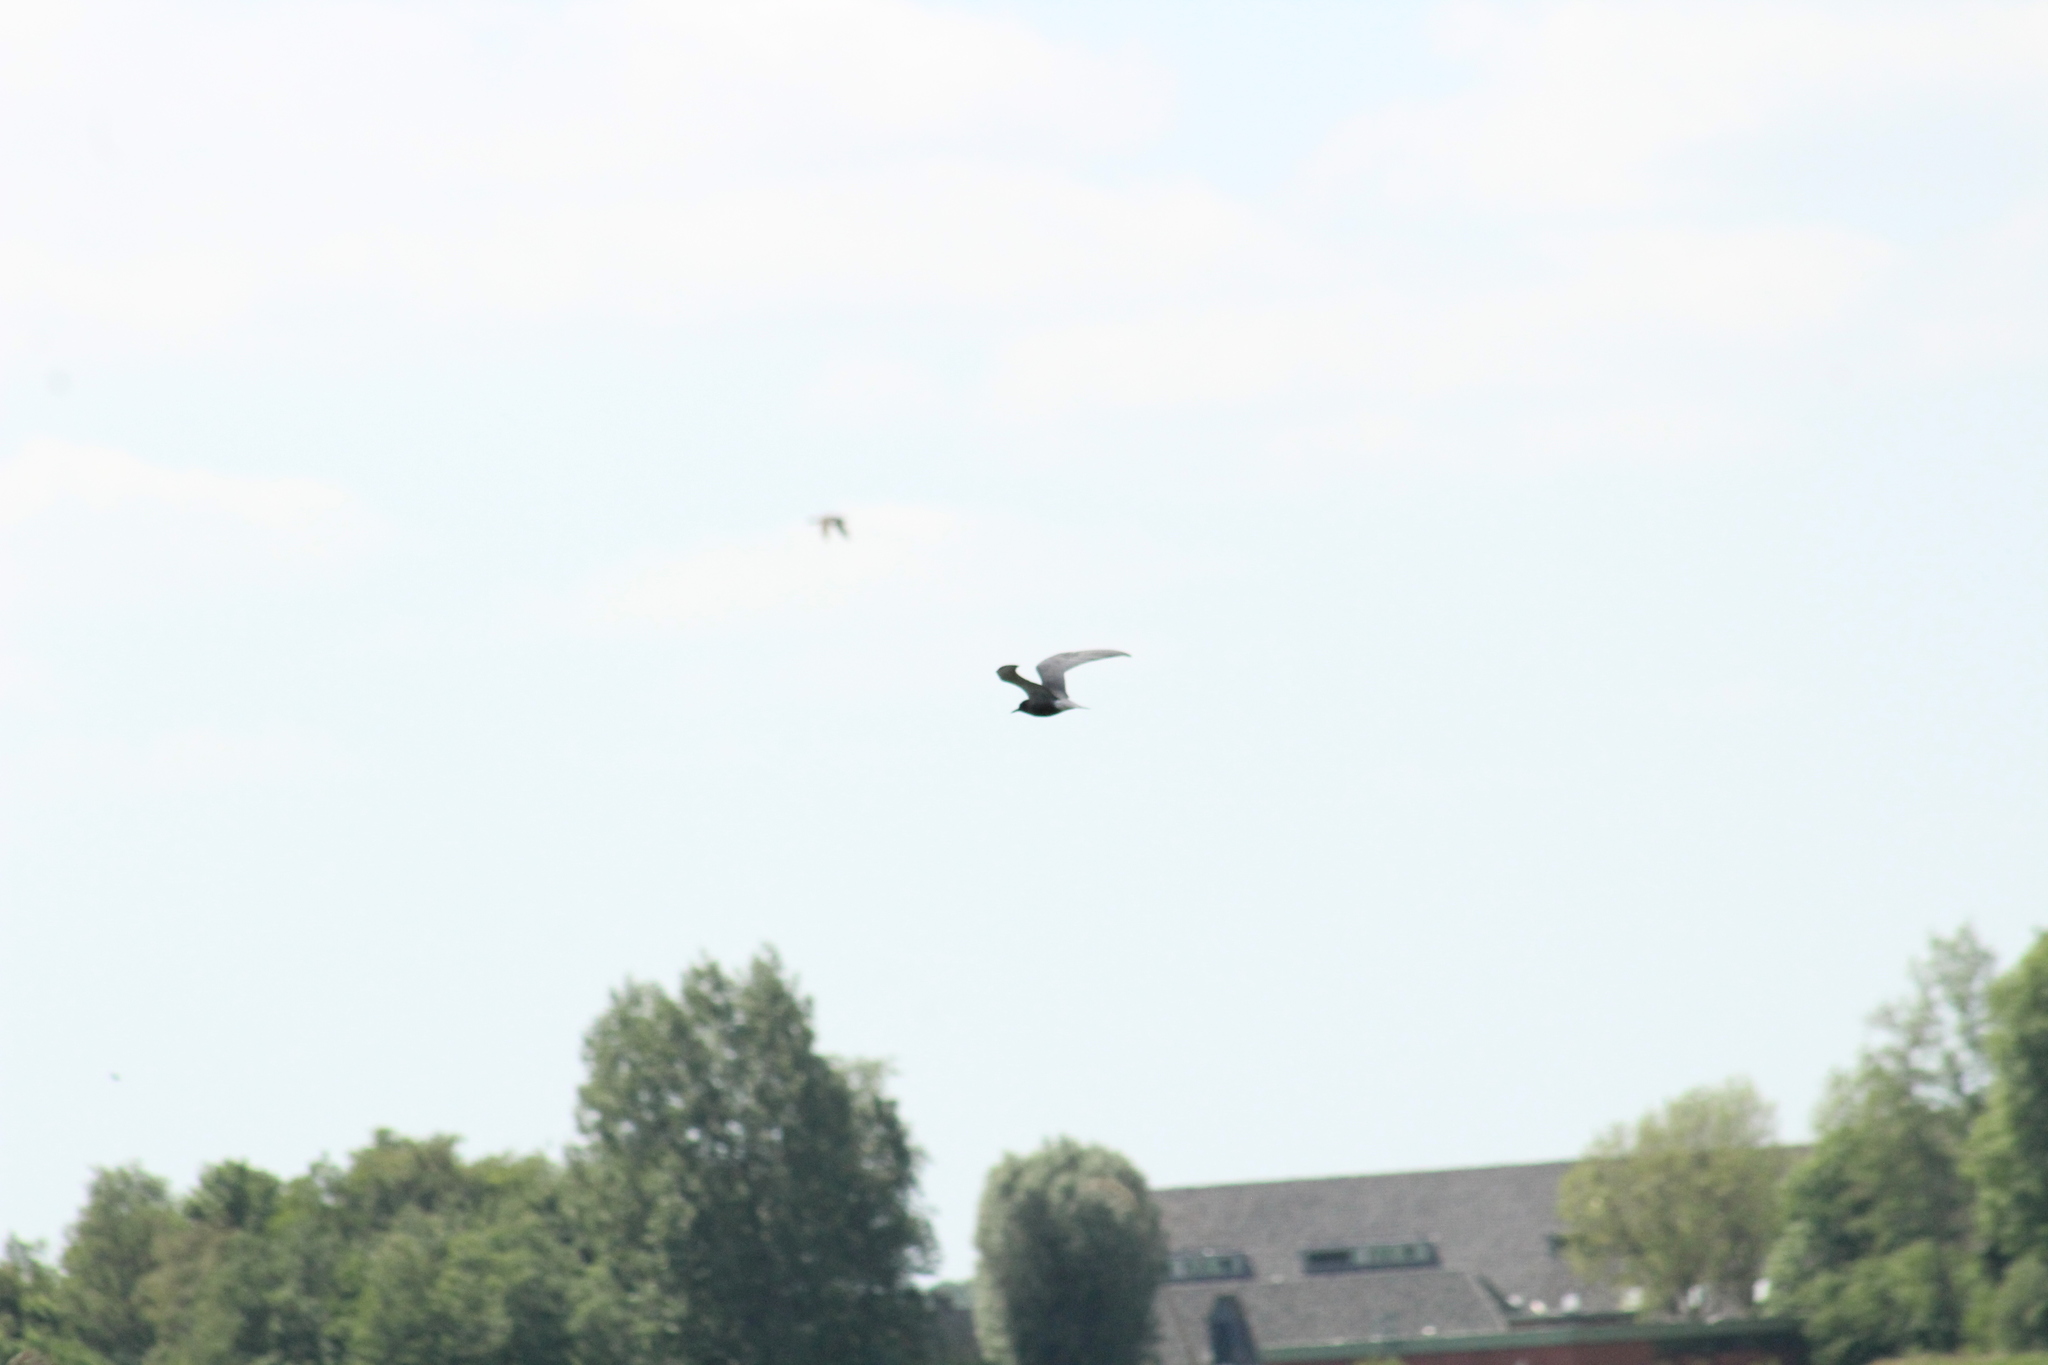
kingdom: Animalia
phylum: Chordata
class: Aves
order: Charadriiformes
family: Laridae
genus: Chlidonias
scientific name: Chlidonias niger
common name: Black tern
